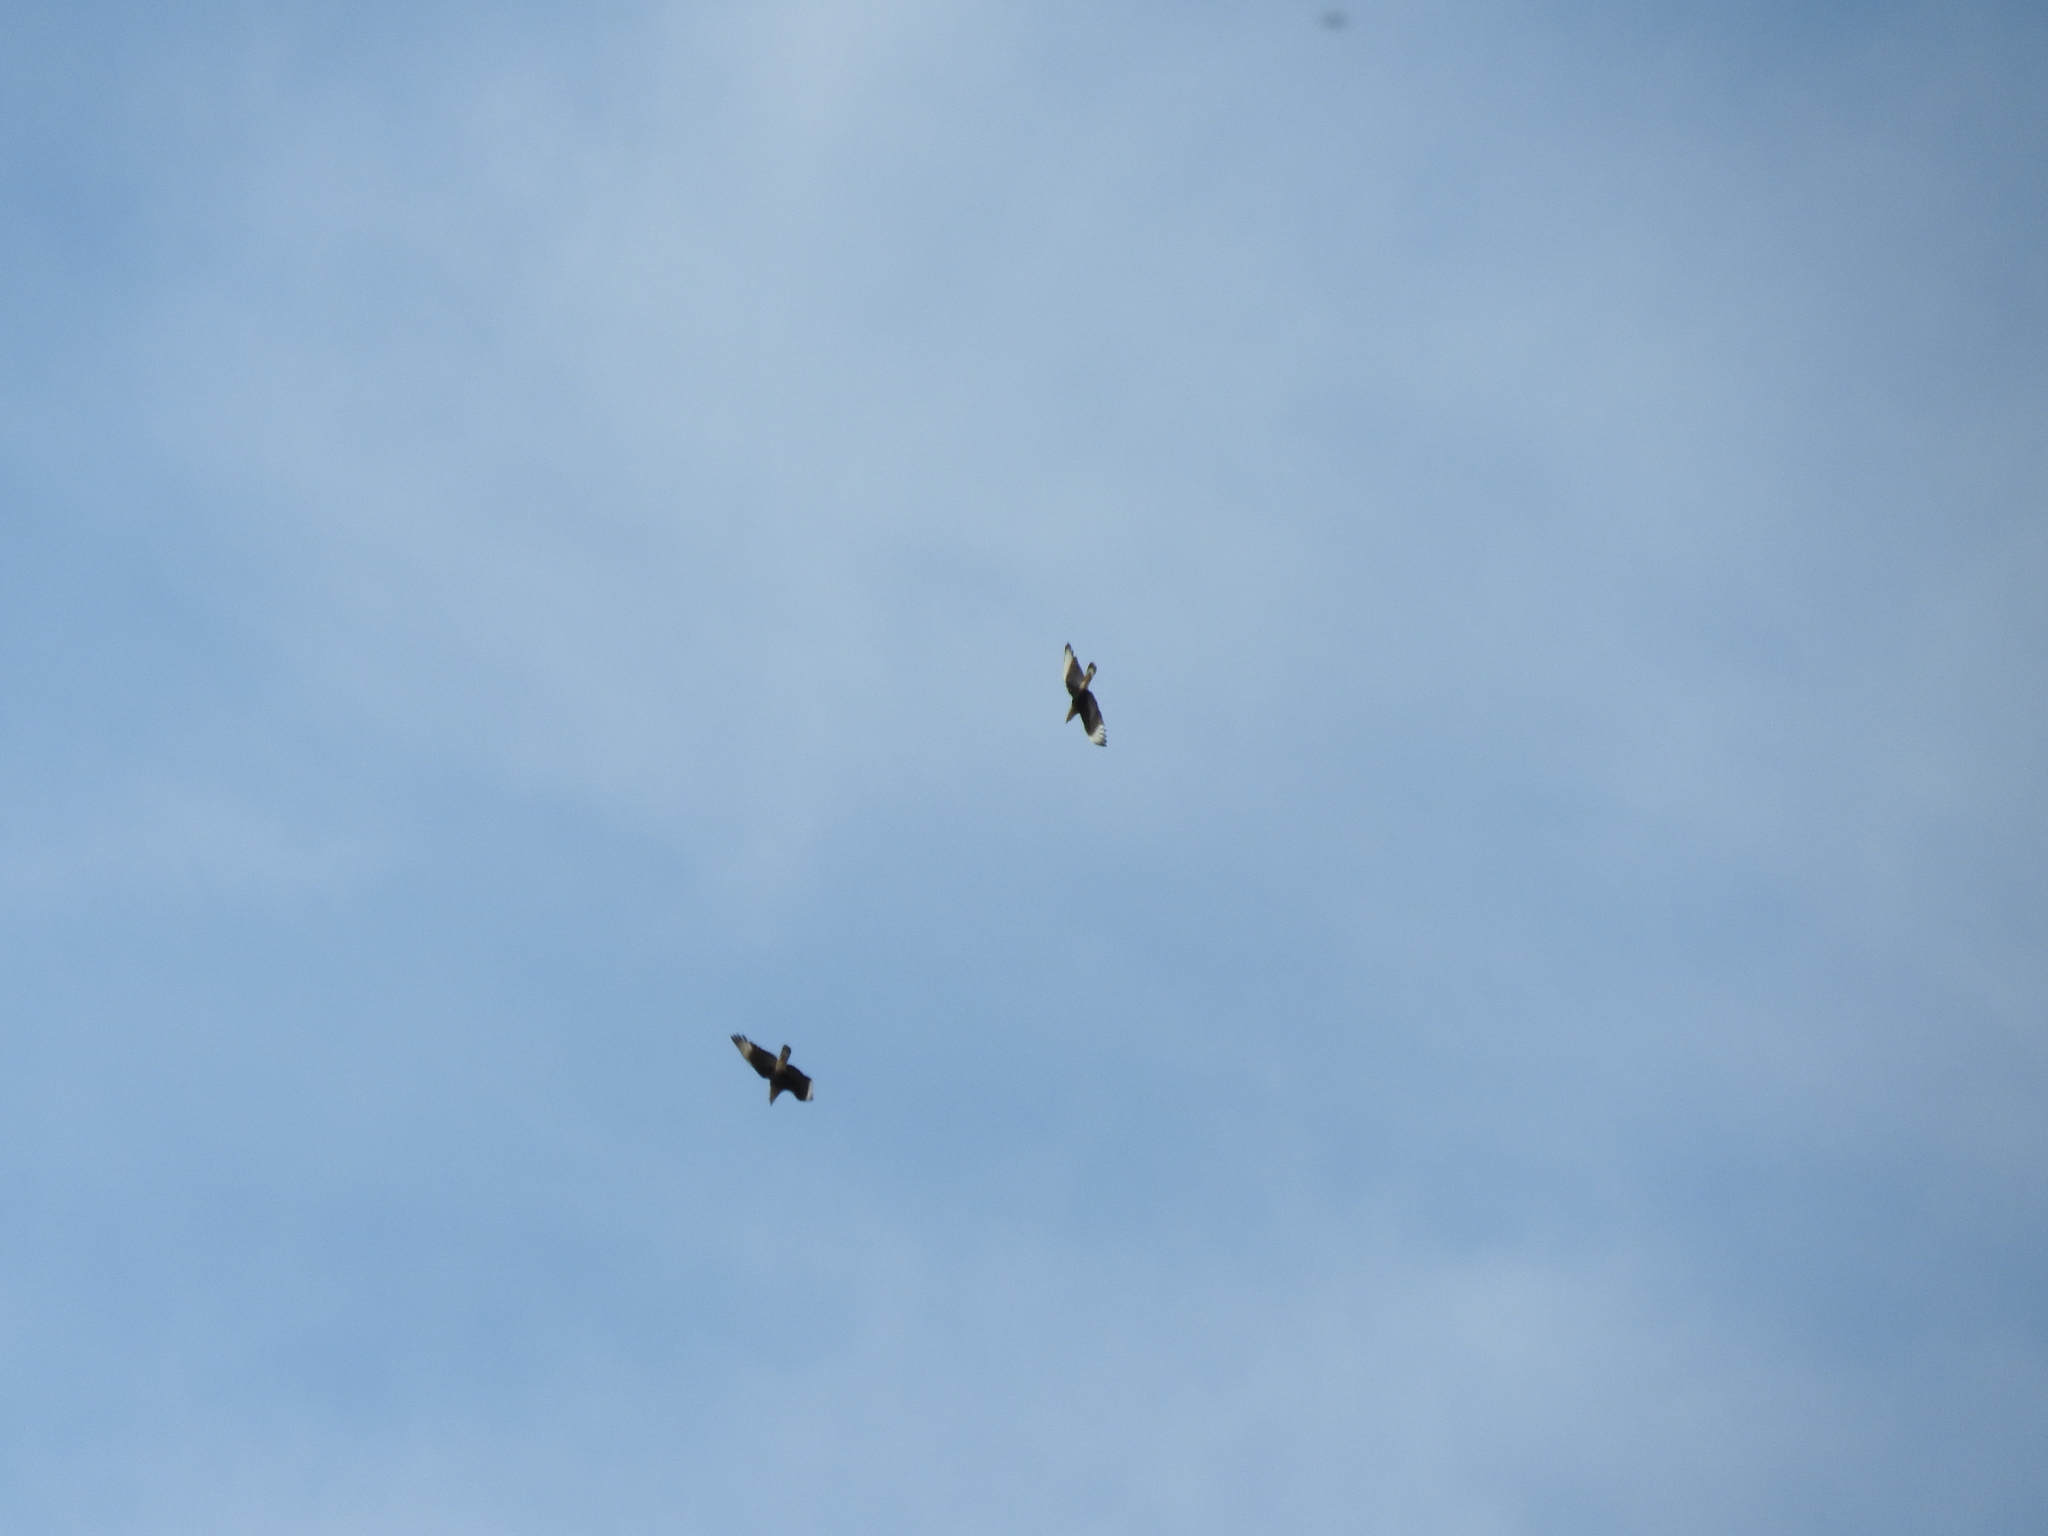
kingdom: Animalia
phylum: Chordata
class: Aves
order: Falconiformes
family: Falconidae
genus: Caracara
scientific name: Caracara plancus
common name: Southern caracara
